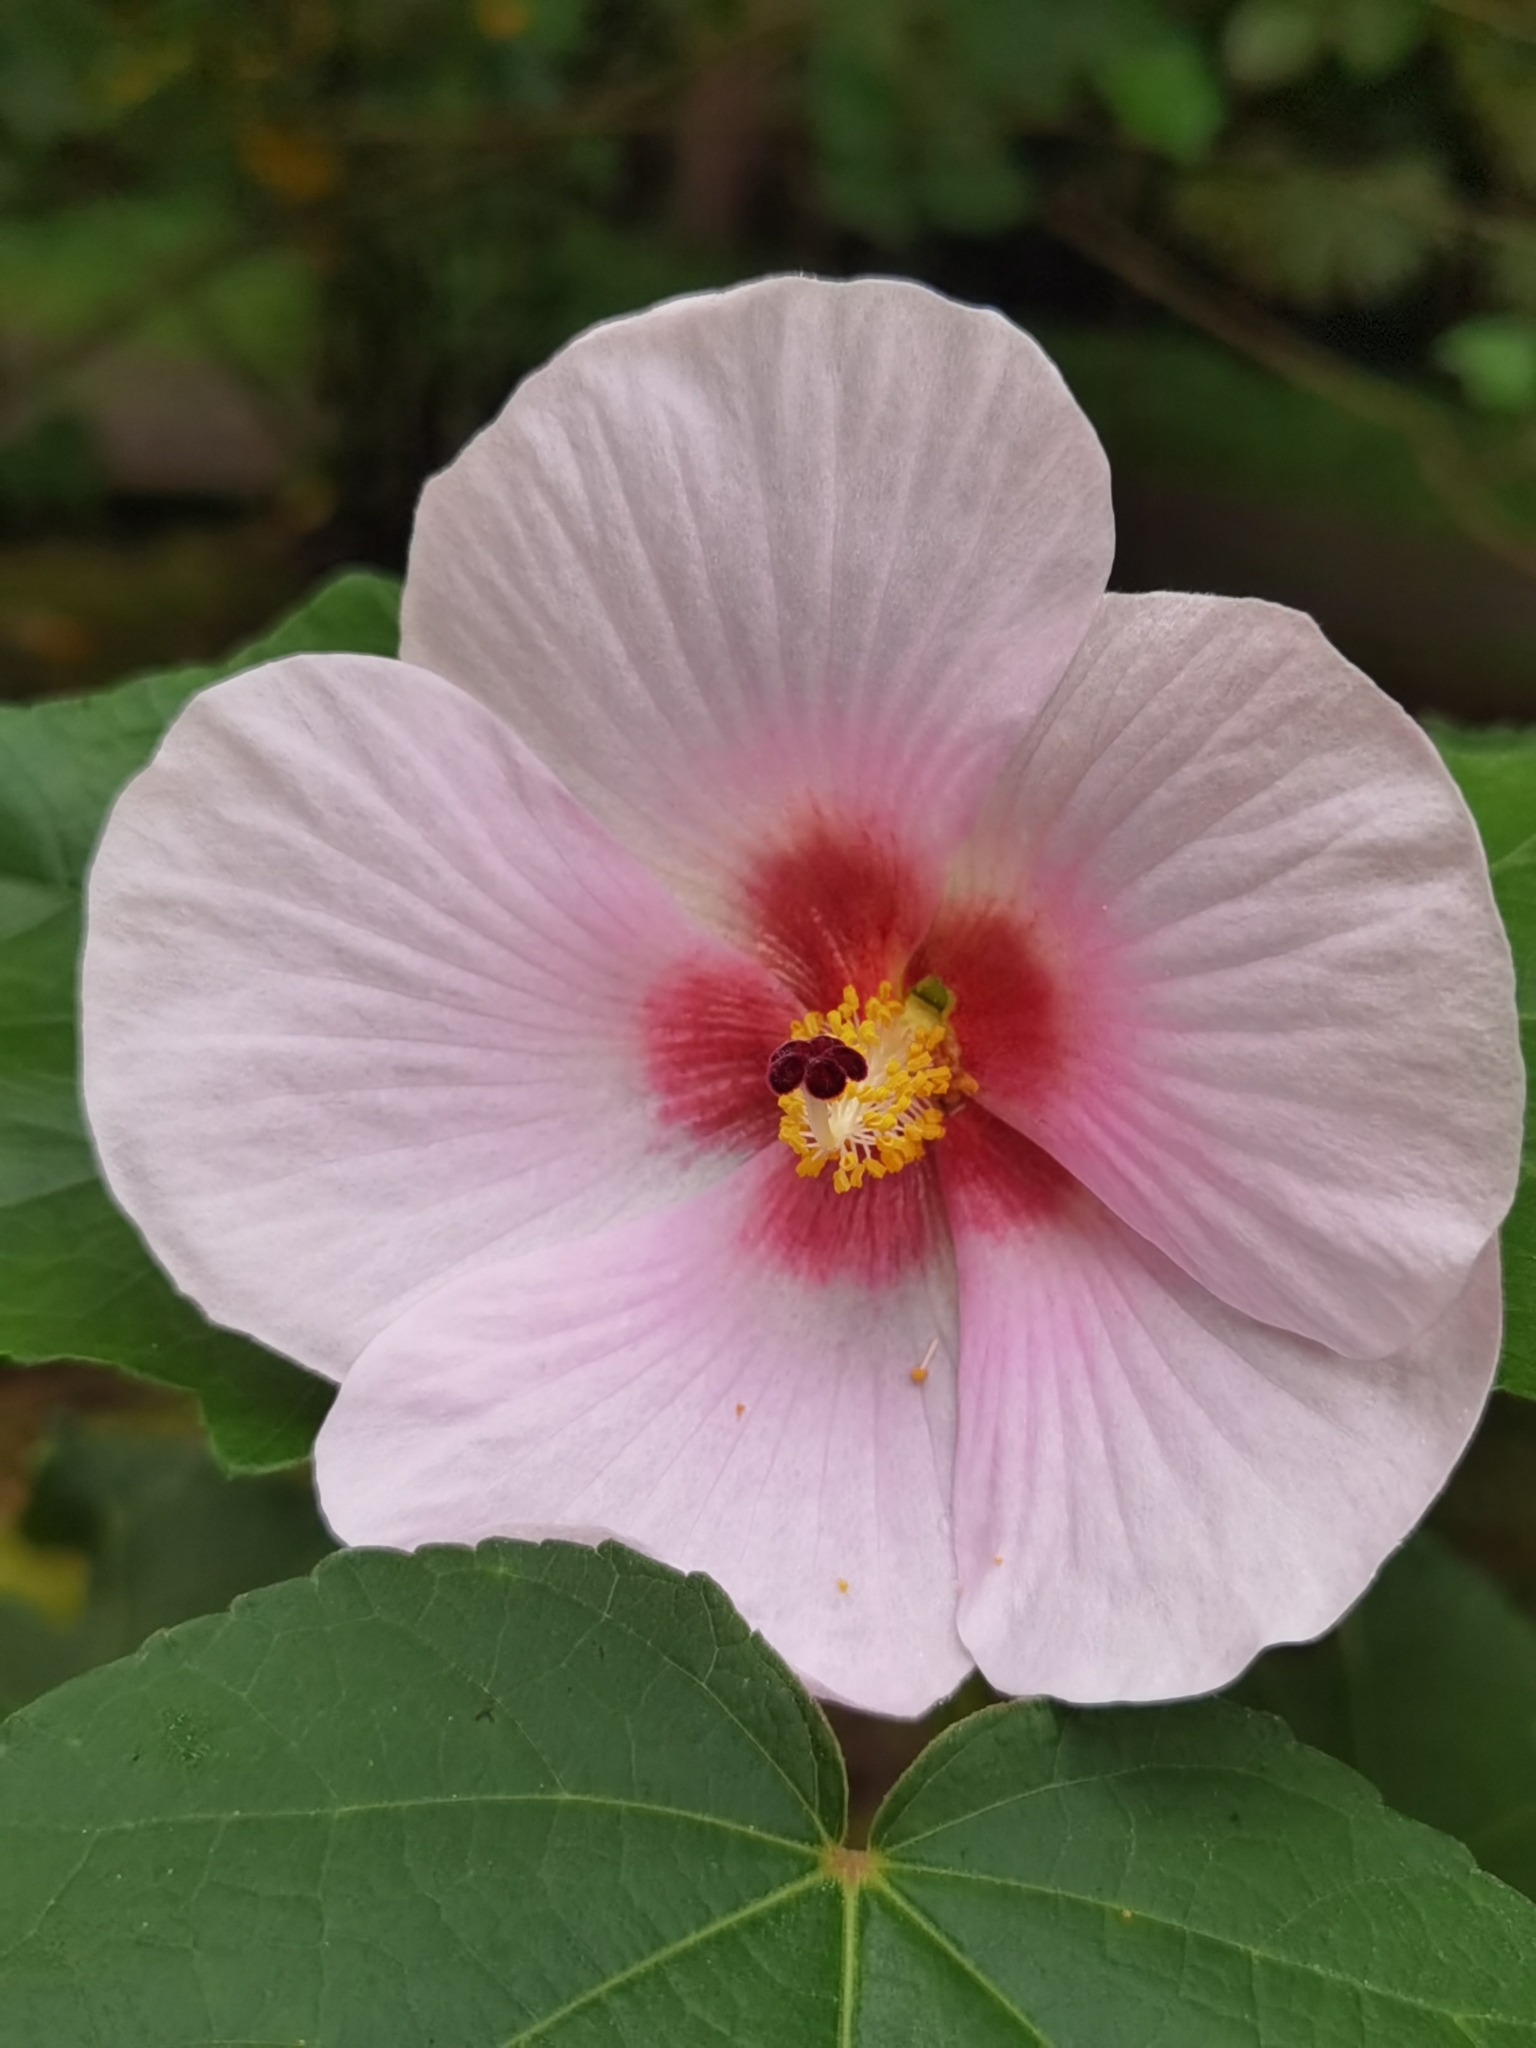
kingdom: Plantae
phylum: Tracheophyta
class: Magnoliopsida
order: Malvales
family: Malvaceae
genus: Hibiscus
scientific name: Hibiscus mutabilis
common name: Dixie rosemallow
